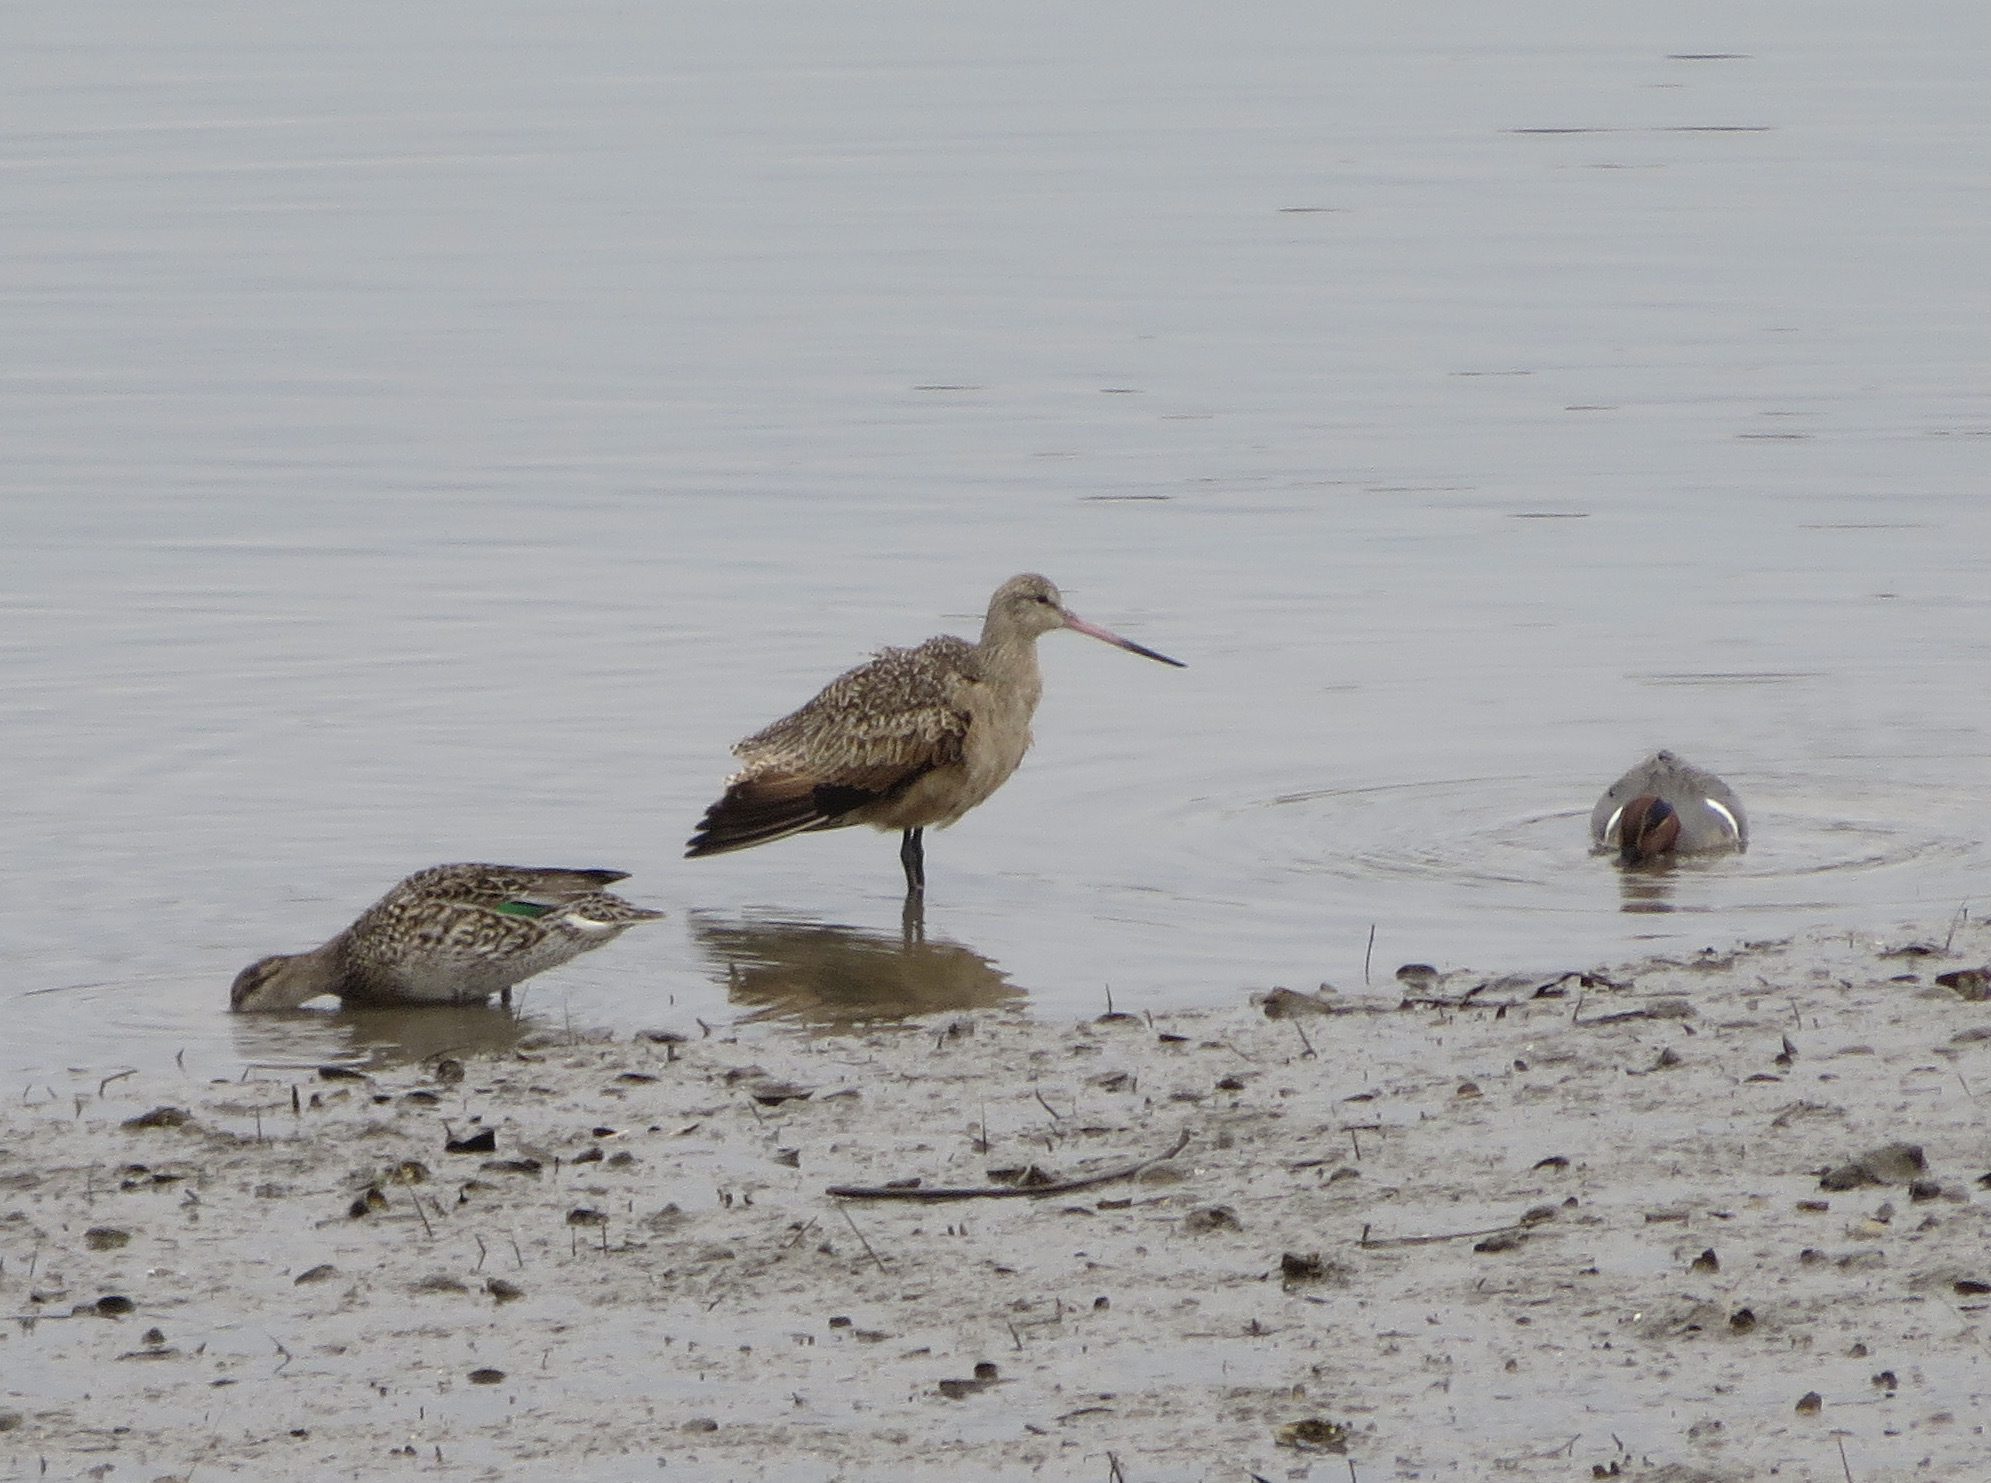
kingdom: Animalia
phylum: Chordata
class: Aves
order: Anseriformes
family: Anatidae
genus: Anas
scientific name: Anas crecca
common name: Eurasian teal
